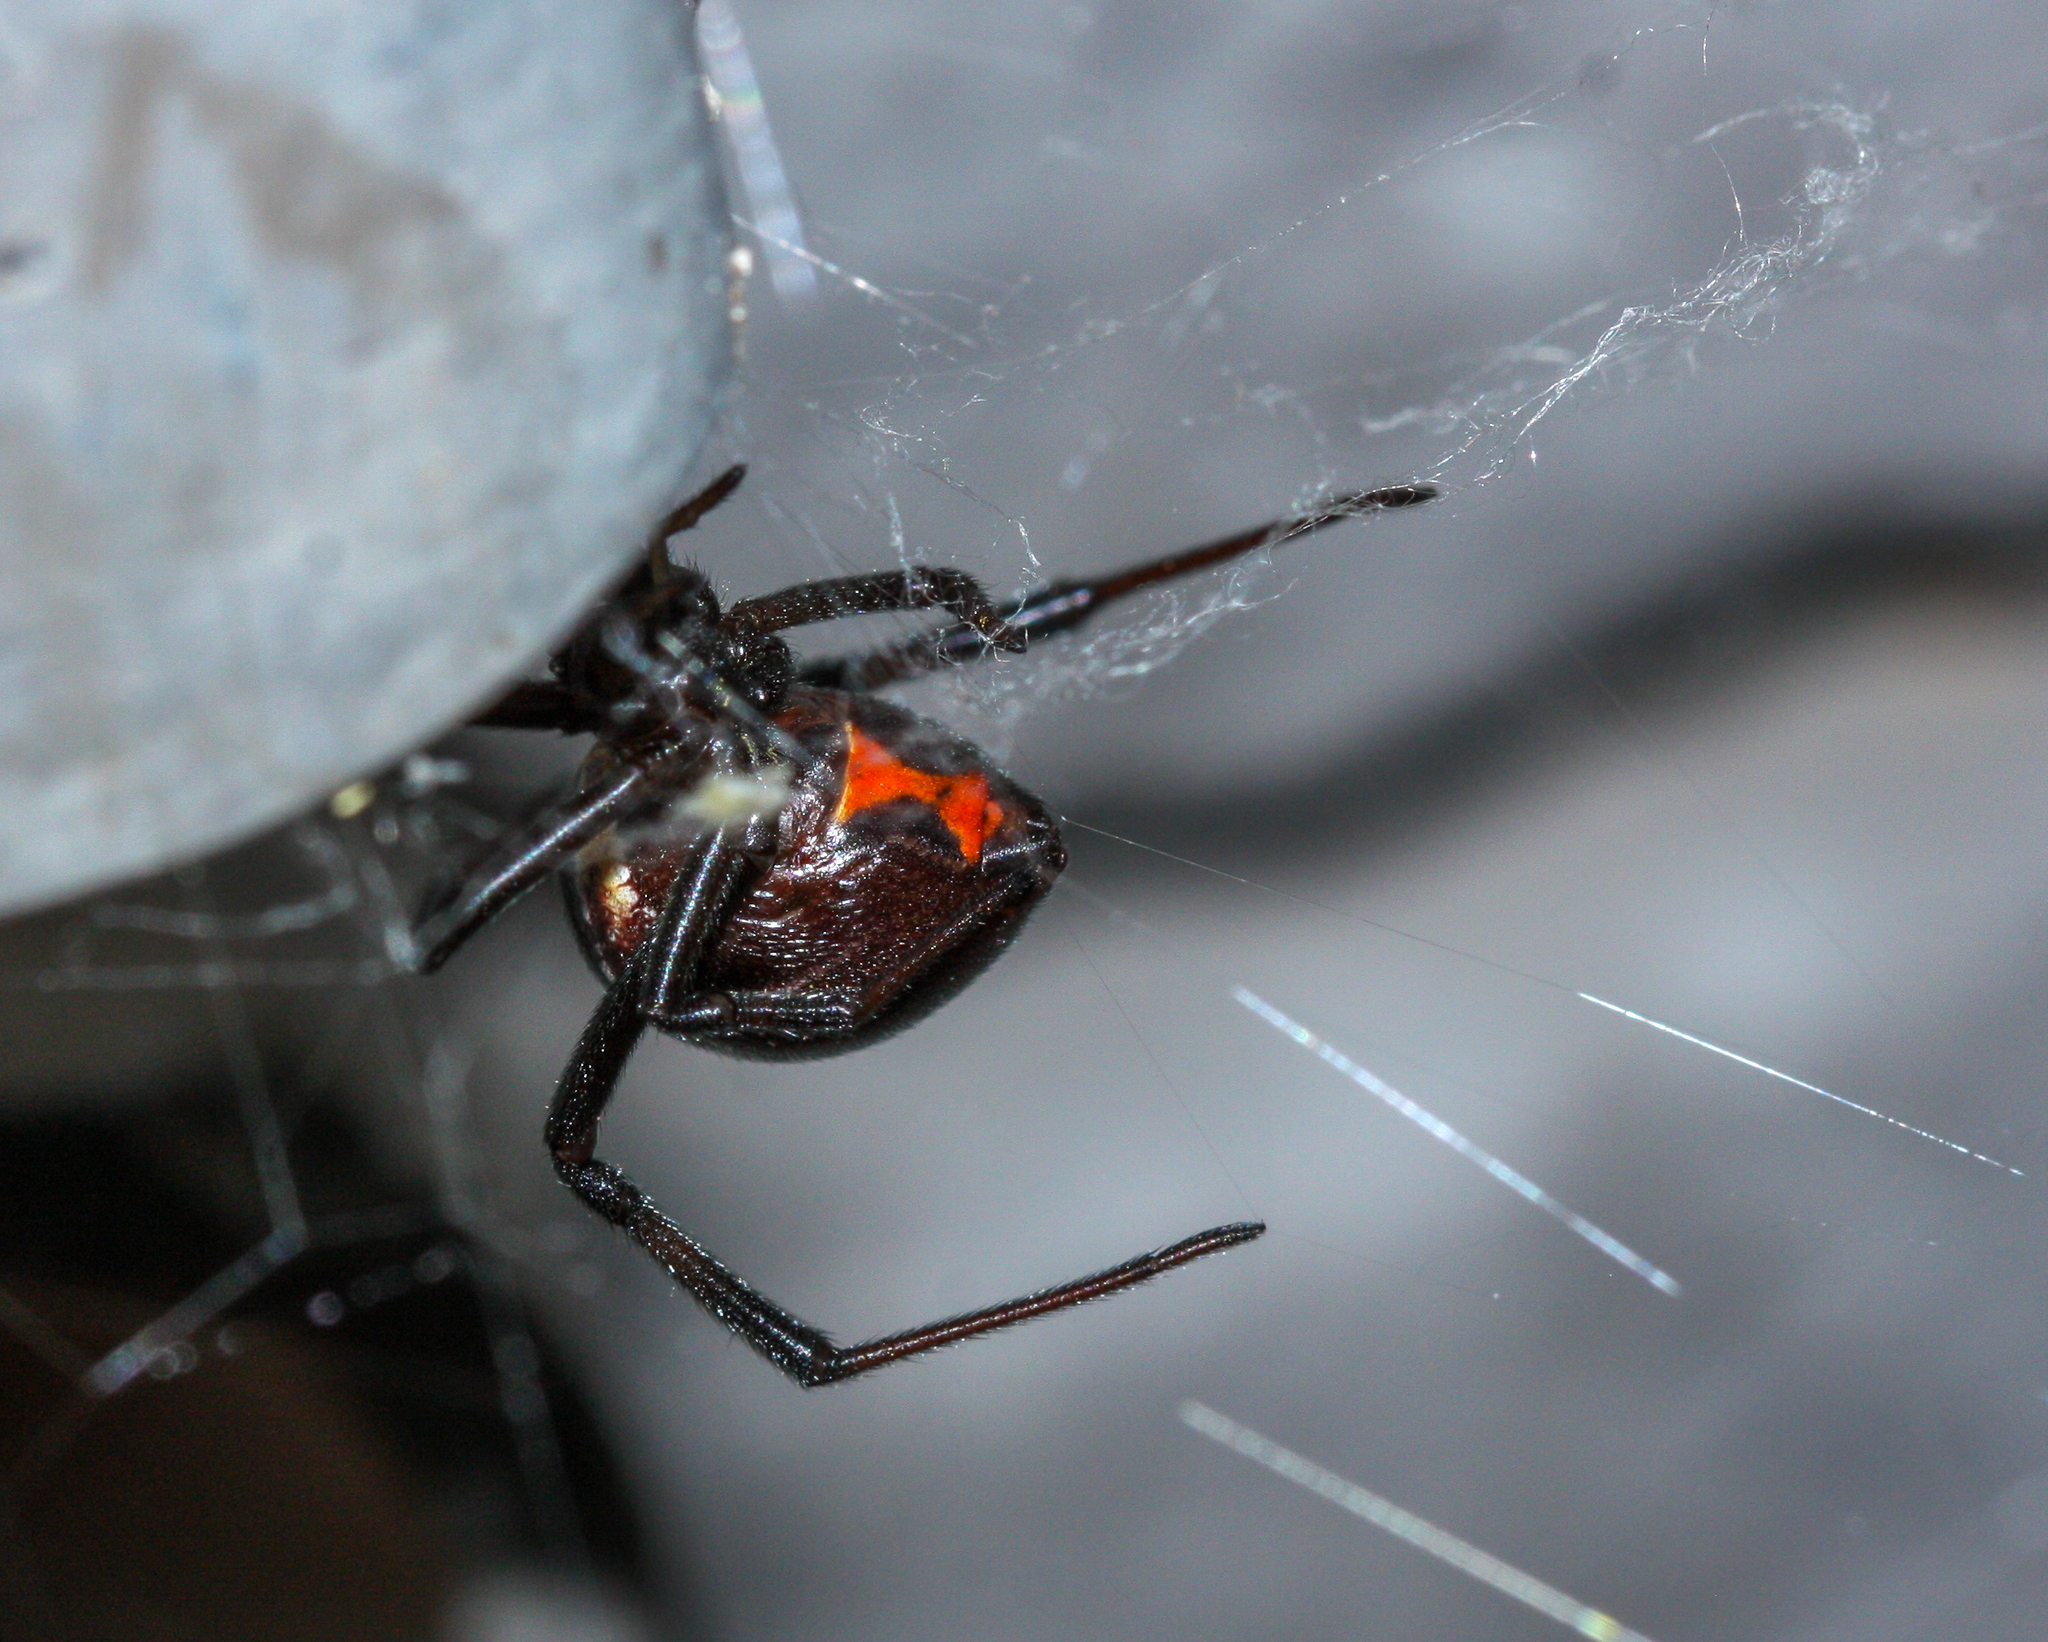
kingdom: Animalia
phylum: Arthropoda
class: Arachnida
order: Araneae
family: Theridiidae
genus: Latrodectus
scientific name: Latrodectus hesperus
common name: Western black widow
